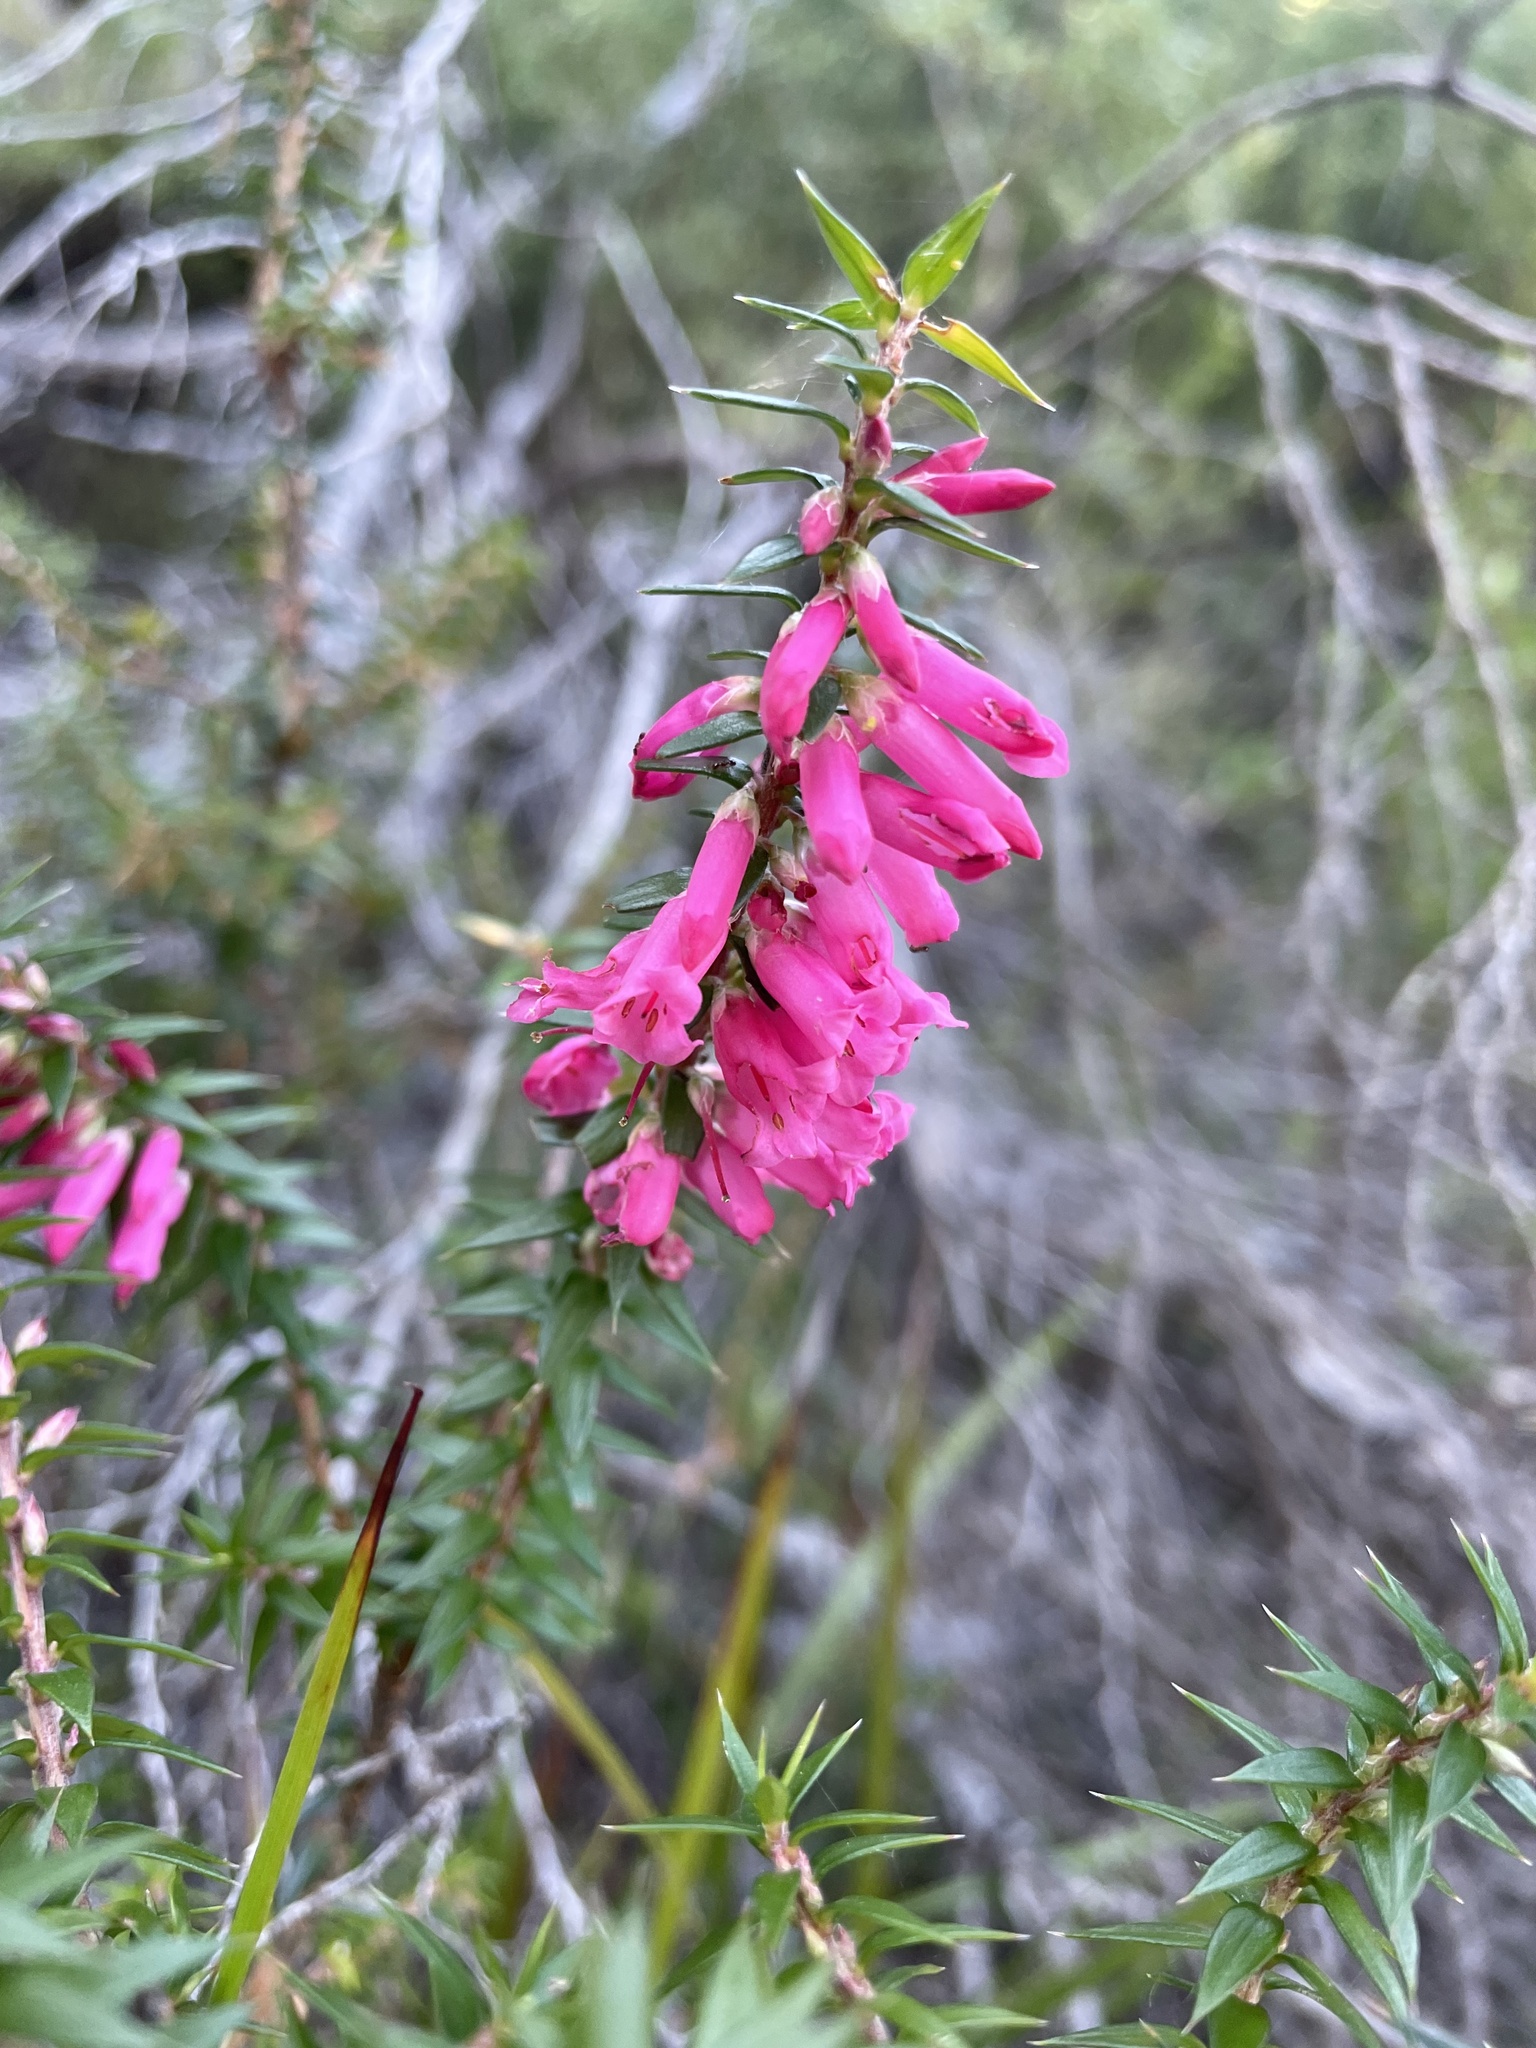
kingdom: Plantae
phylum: Tracheophyta
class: Magnoliopsida
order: Ericales
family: Ericaceae
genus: Epacris
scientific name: Epacris impressa
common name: Common-heath
